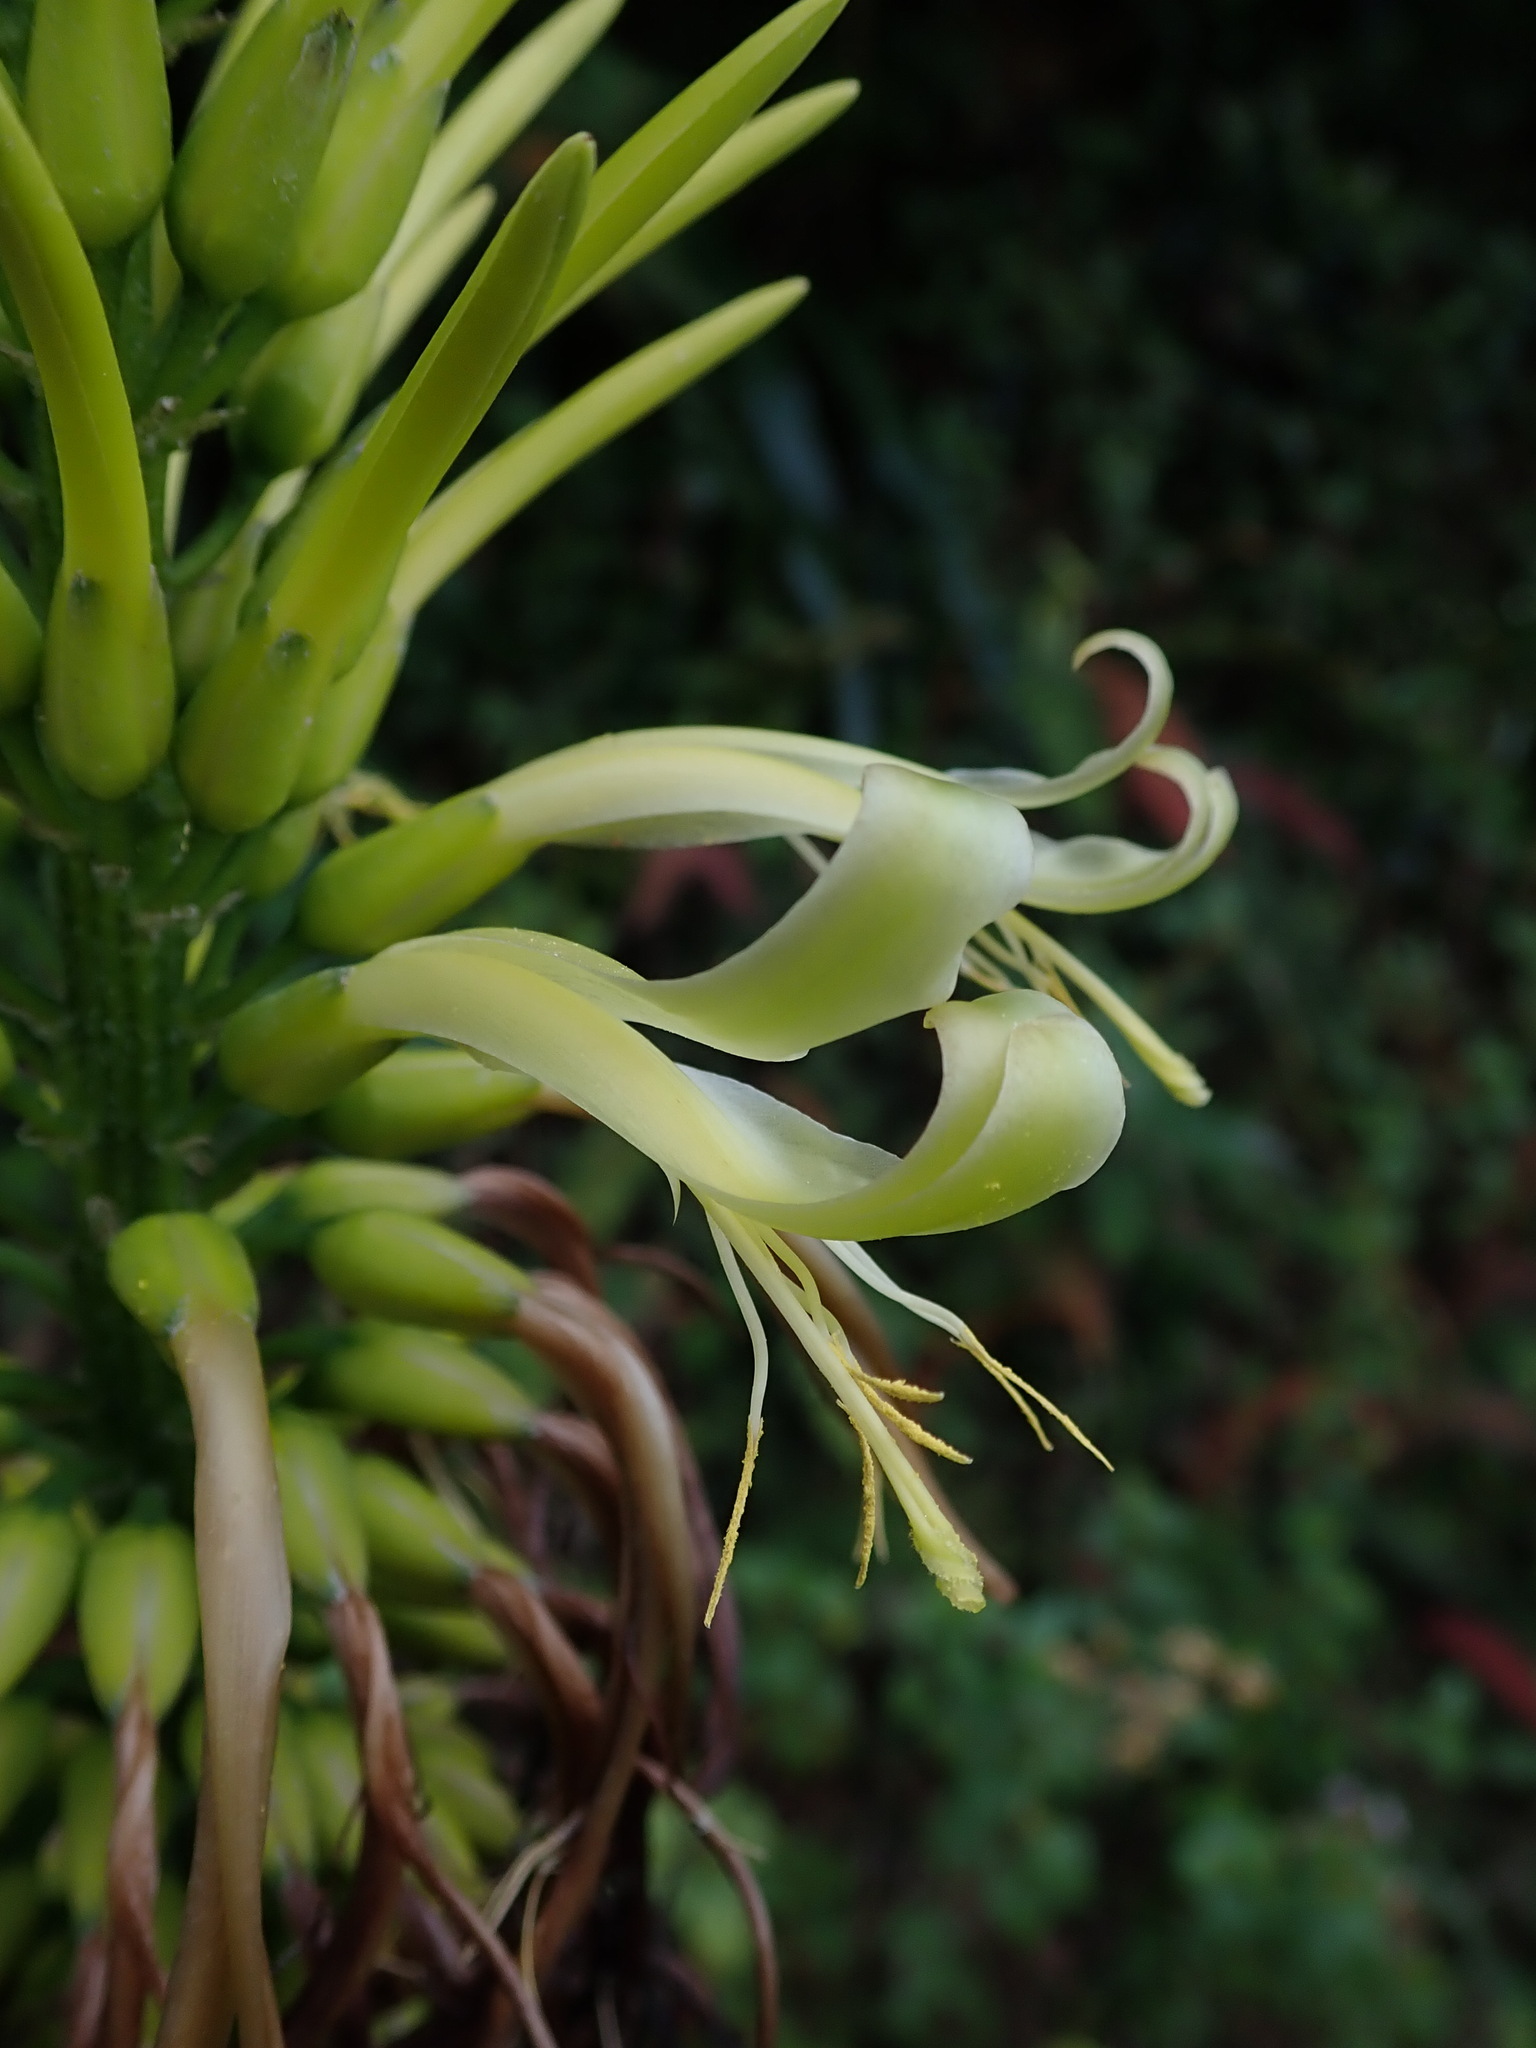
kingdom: Plantae
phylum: Tracheophyta
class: Liliopsida
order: Poales
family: Bromeliaceae
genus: Pitcairnia
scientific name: Pitcairnia trianae
